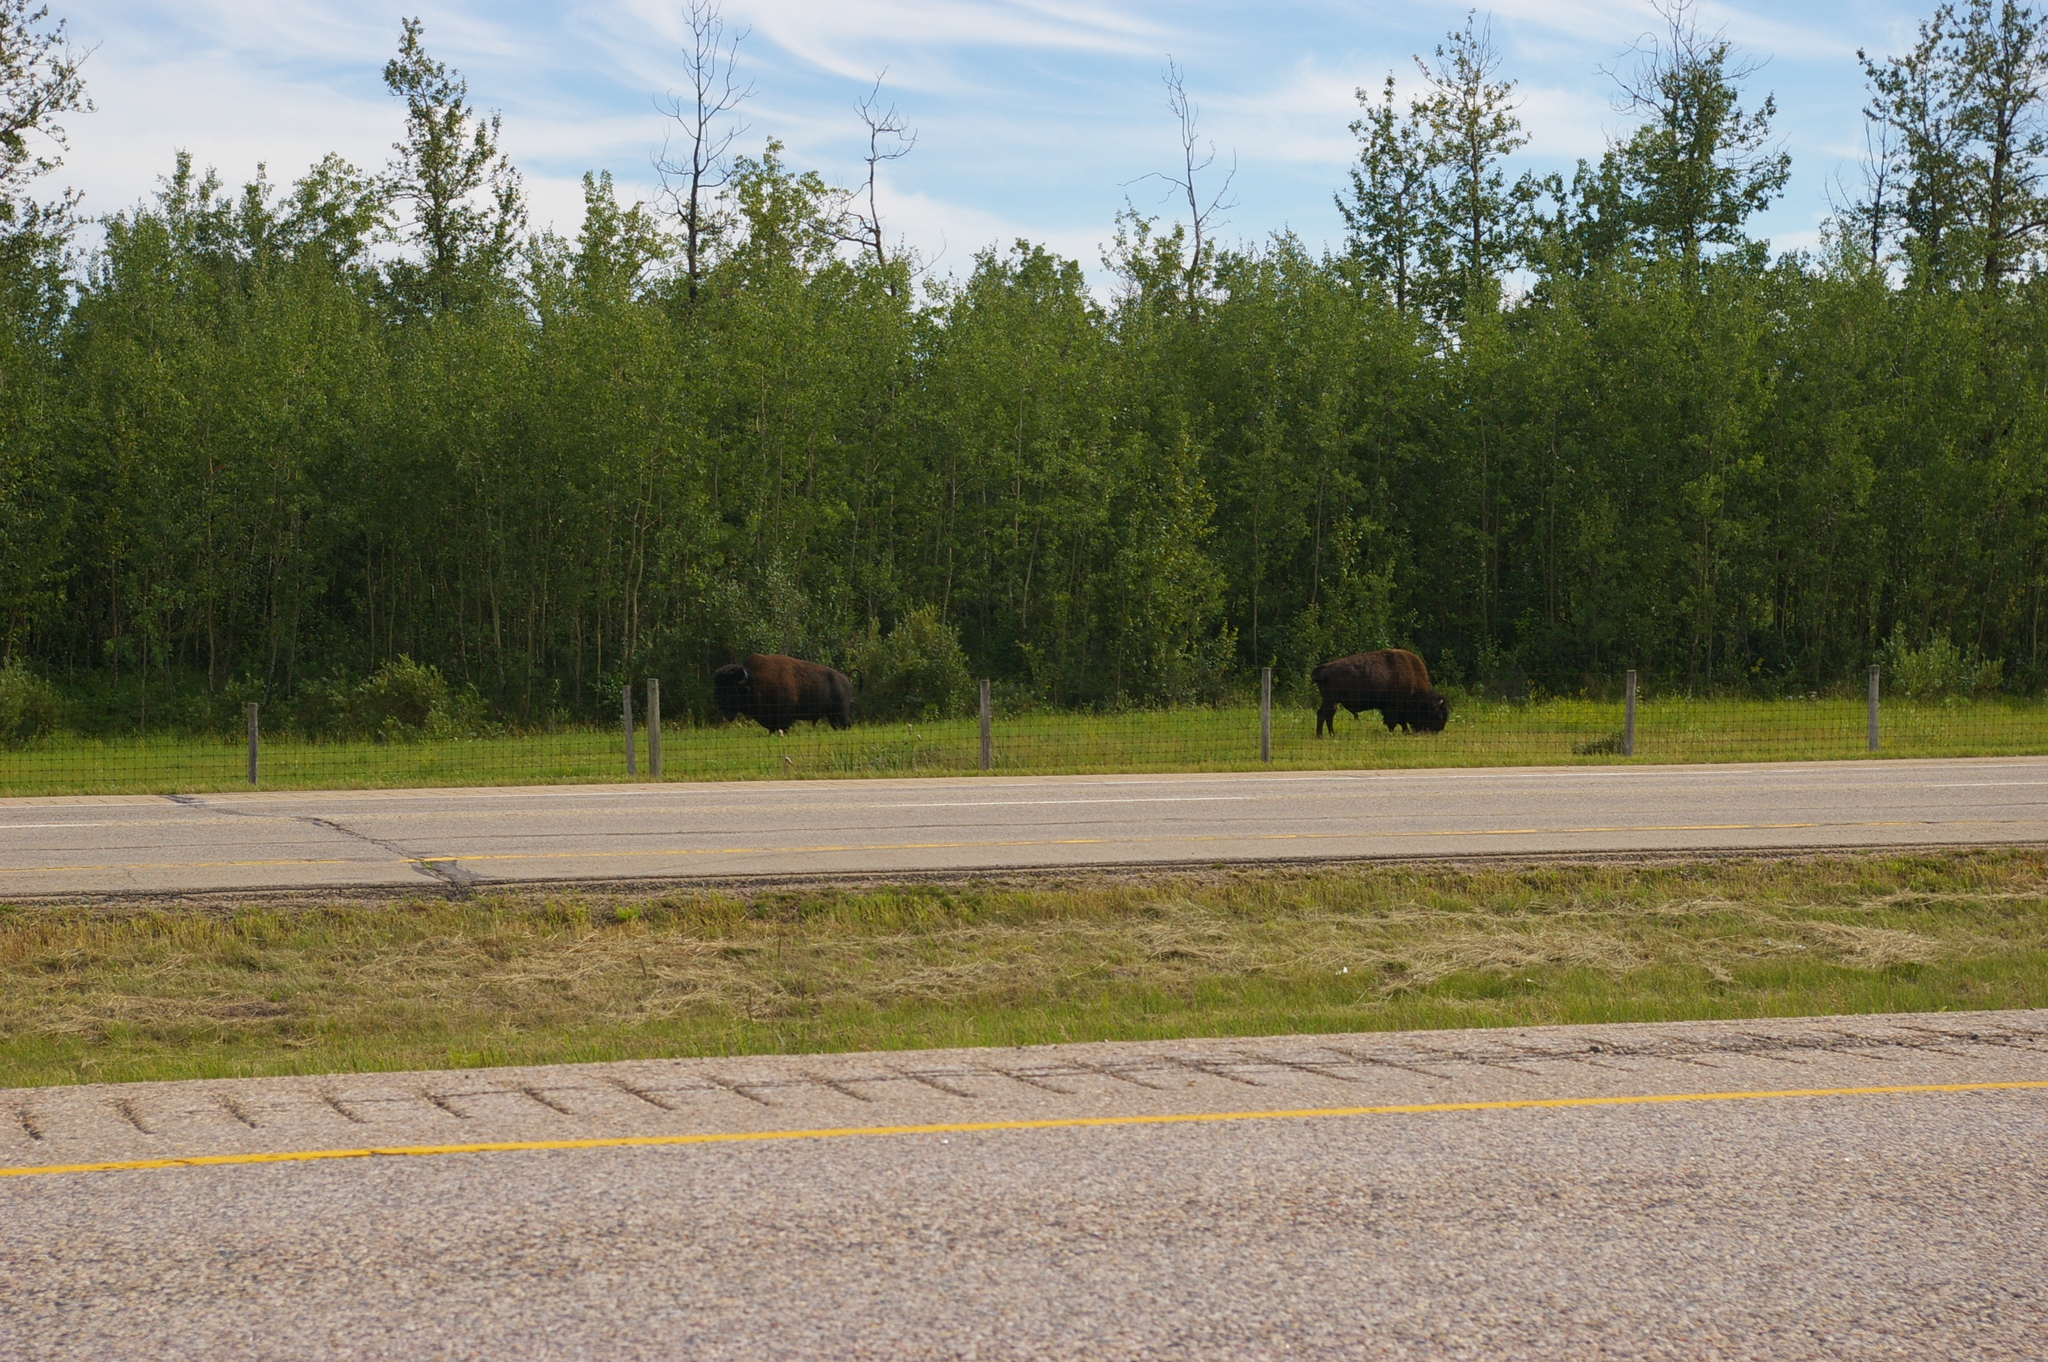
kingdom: Animalia
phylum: Chordata
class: Mammalia
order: Artiodactyla
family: Bovidae
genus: Bison
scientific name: Bison bison
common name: American bison
